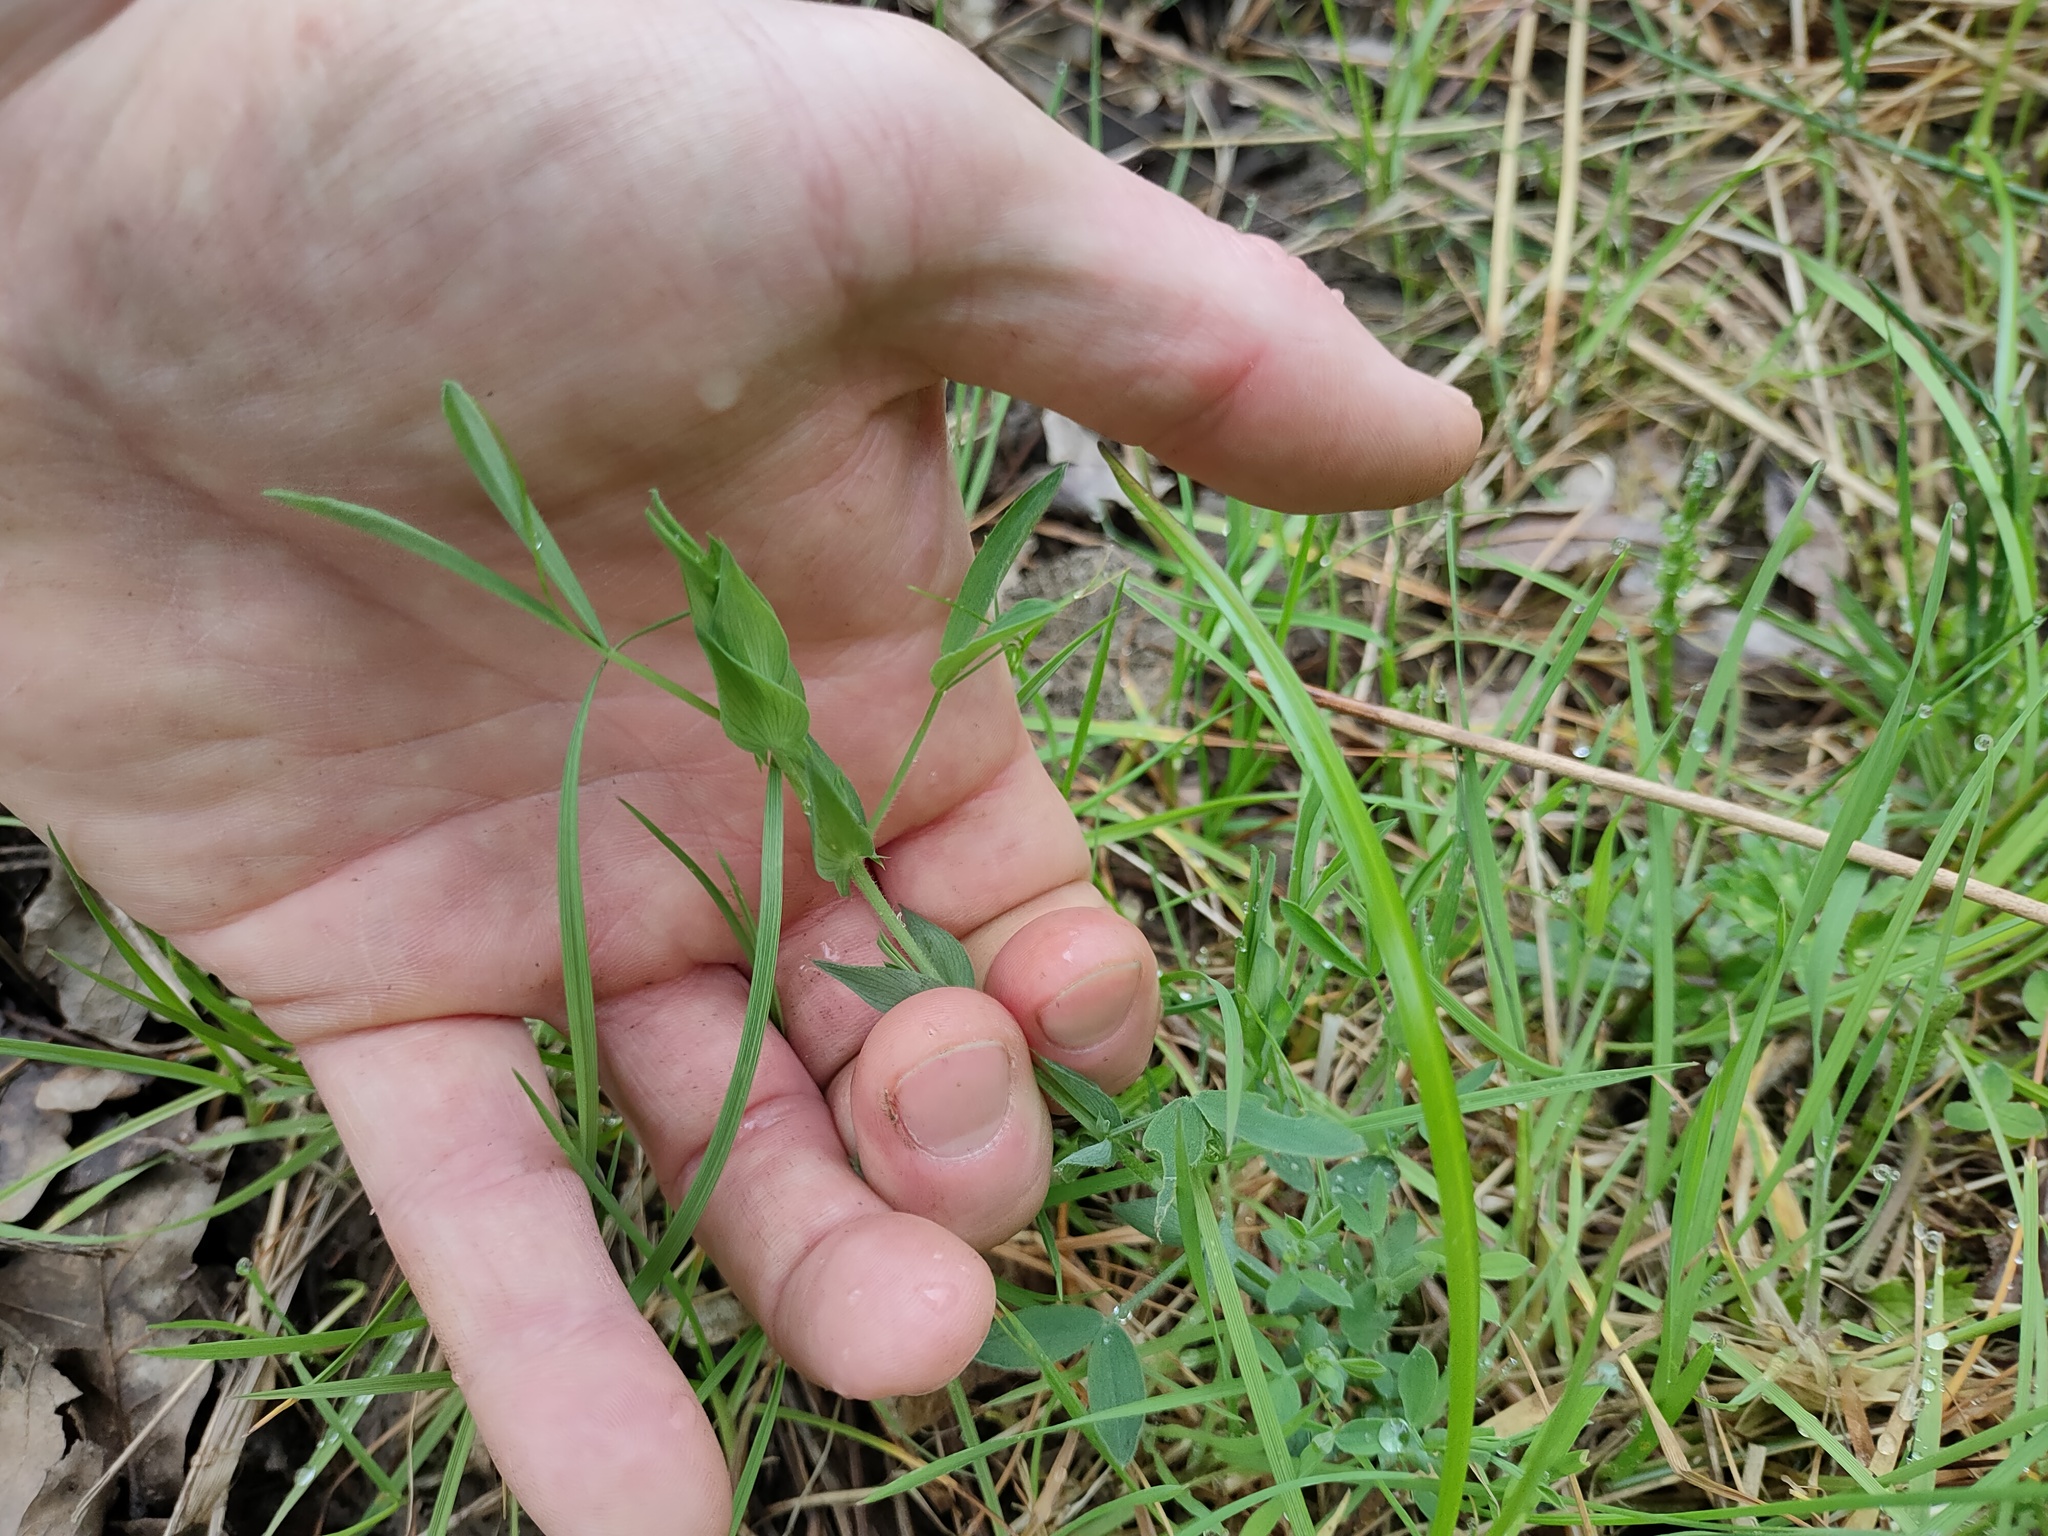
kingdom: Plantae
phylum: Tracheophyta
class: Magnoliopsida
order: Fabales
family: Fabaceae
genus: Lathyrus
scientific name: Lathyrus pratensis
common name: Meadow vetchling
